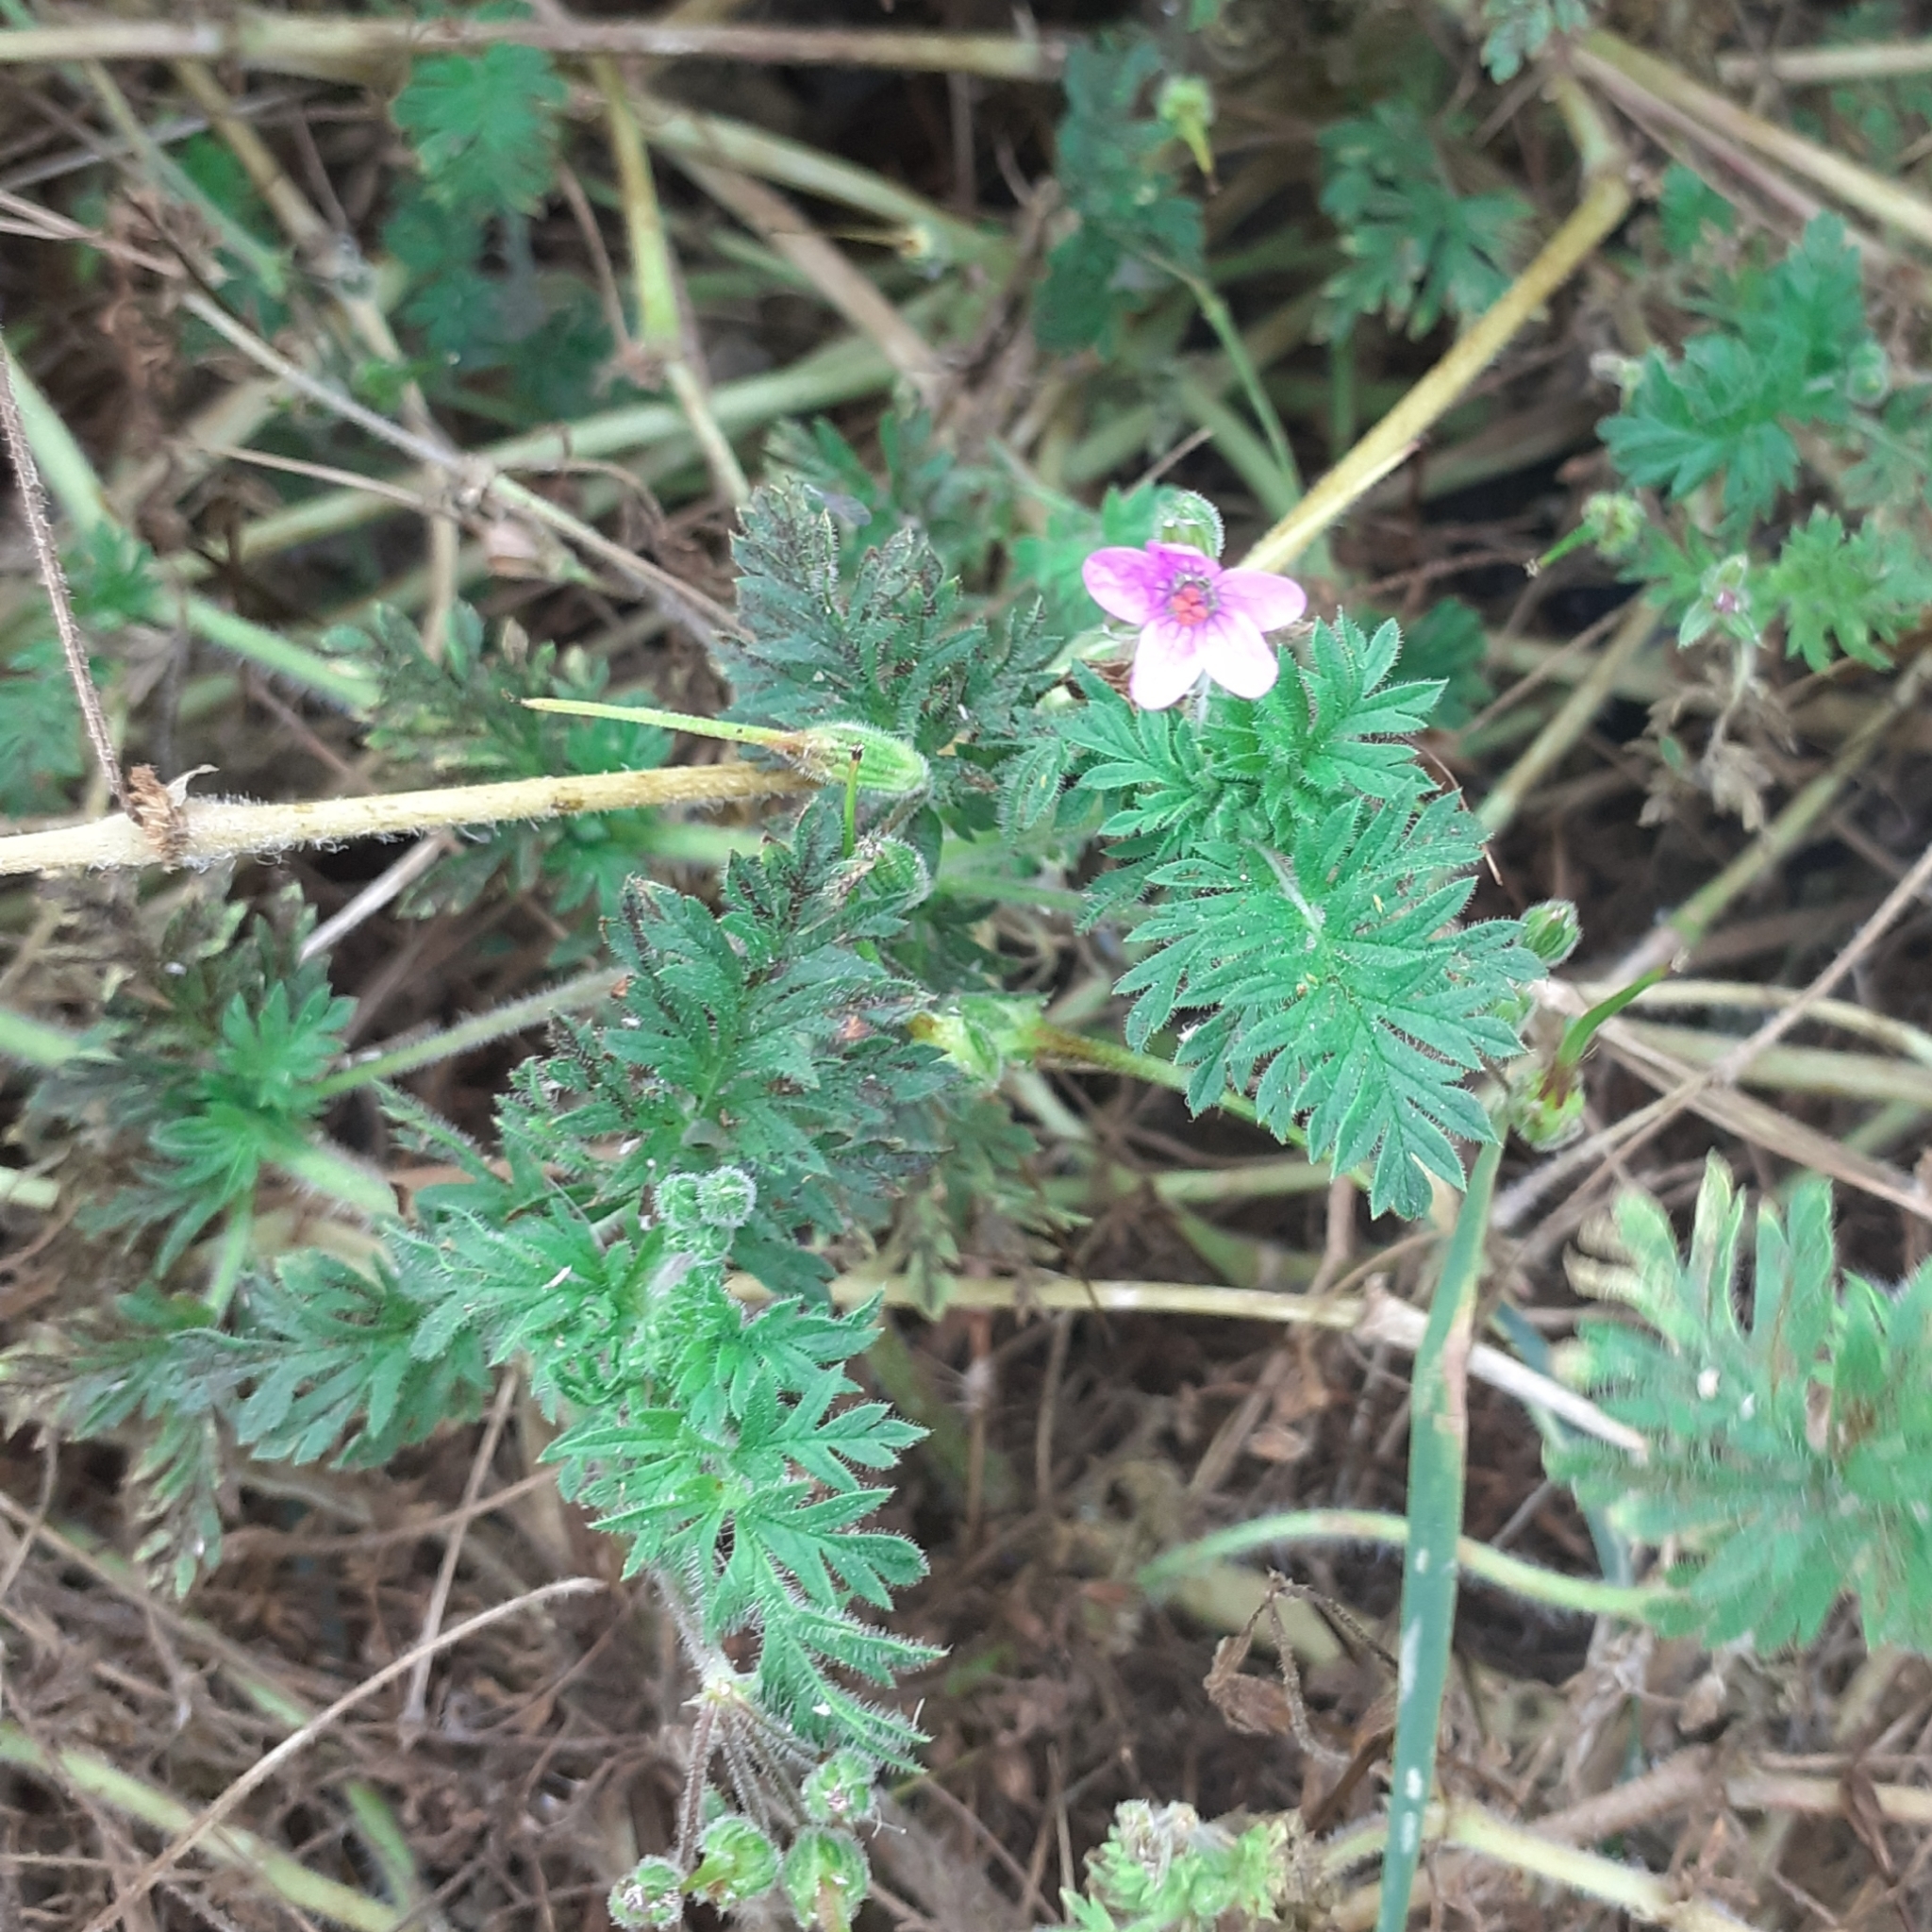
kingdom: Plantae
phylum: Tracheophyta
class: Magnoliopsida
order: Geraniales
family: Geraniaceae
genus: Erodium
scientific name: Erodium cicutarium
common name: Common stork's-bill
